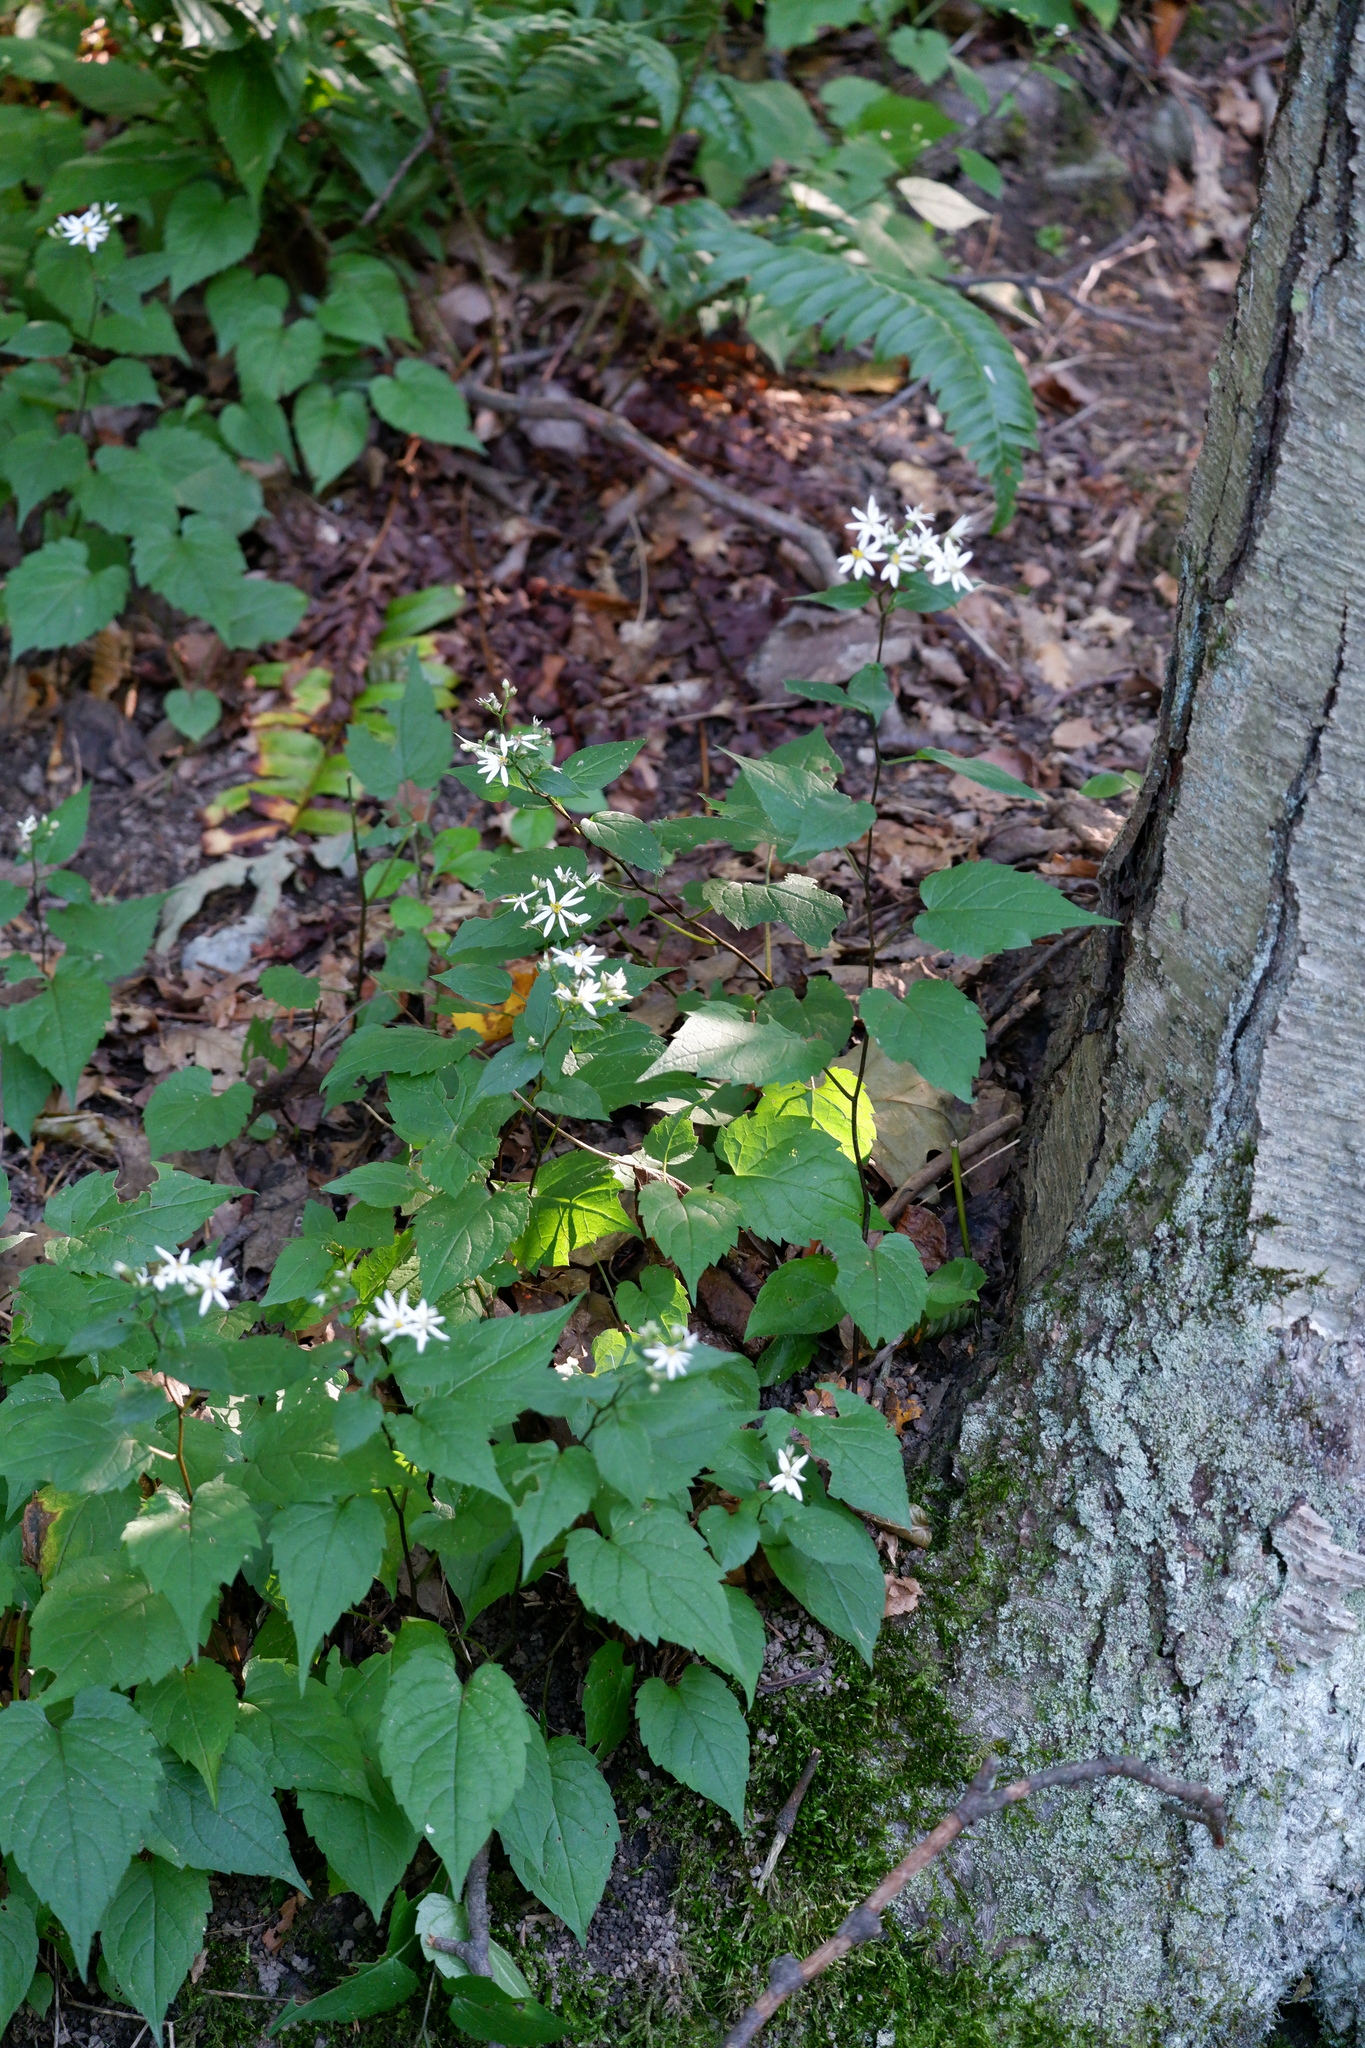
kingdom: Plantae
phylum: Tracheophyta
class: Magnoliopsida
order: Asterales
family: Asteraceae
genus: Eurybia
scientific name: Eurybia divaricata
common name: White wood aster
